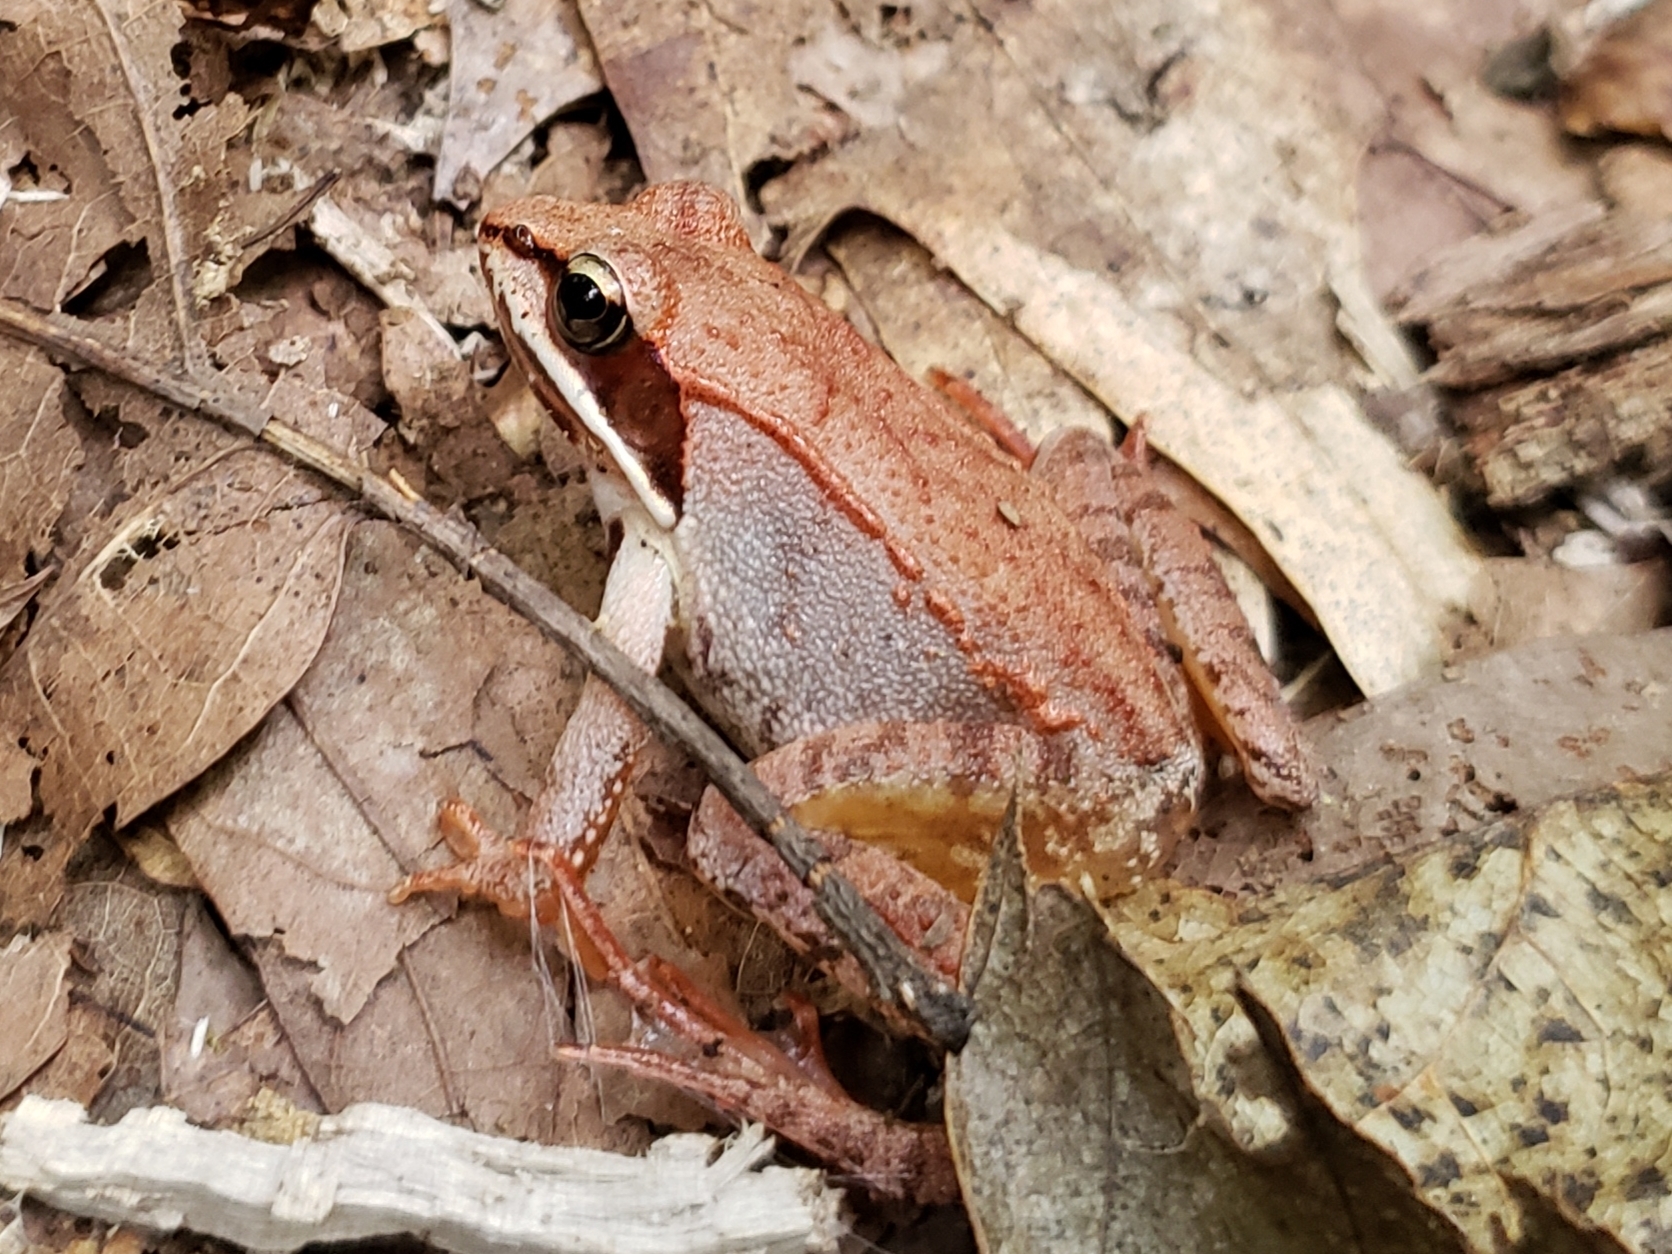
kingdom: Animalia
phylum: Chordata
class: Amphibia
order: Anura
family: Ranidae
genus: Lithobates
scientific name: Lithobates sylvaticus
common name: Wood frog
